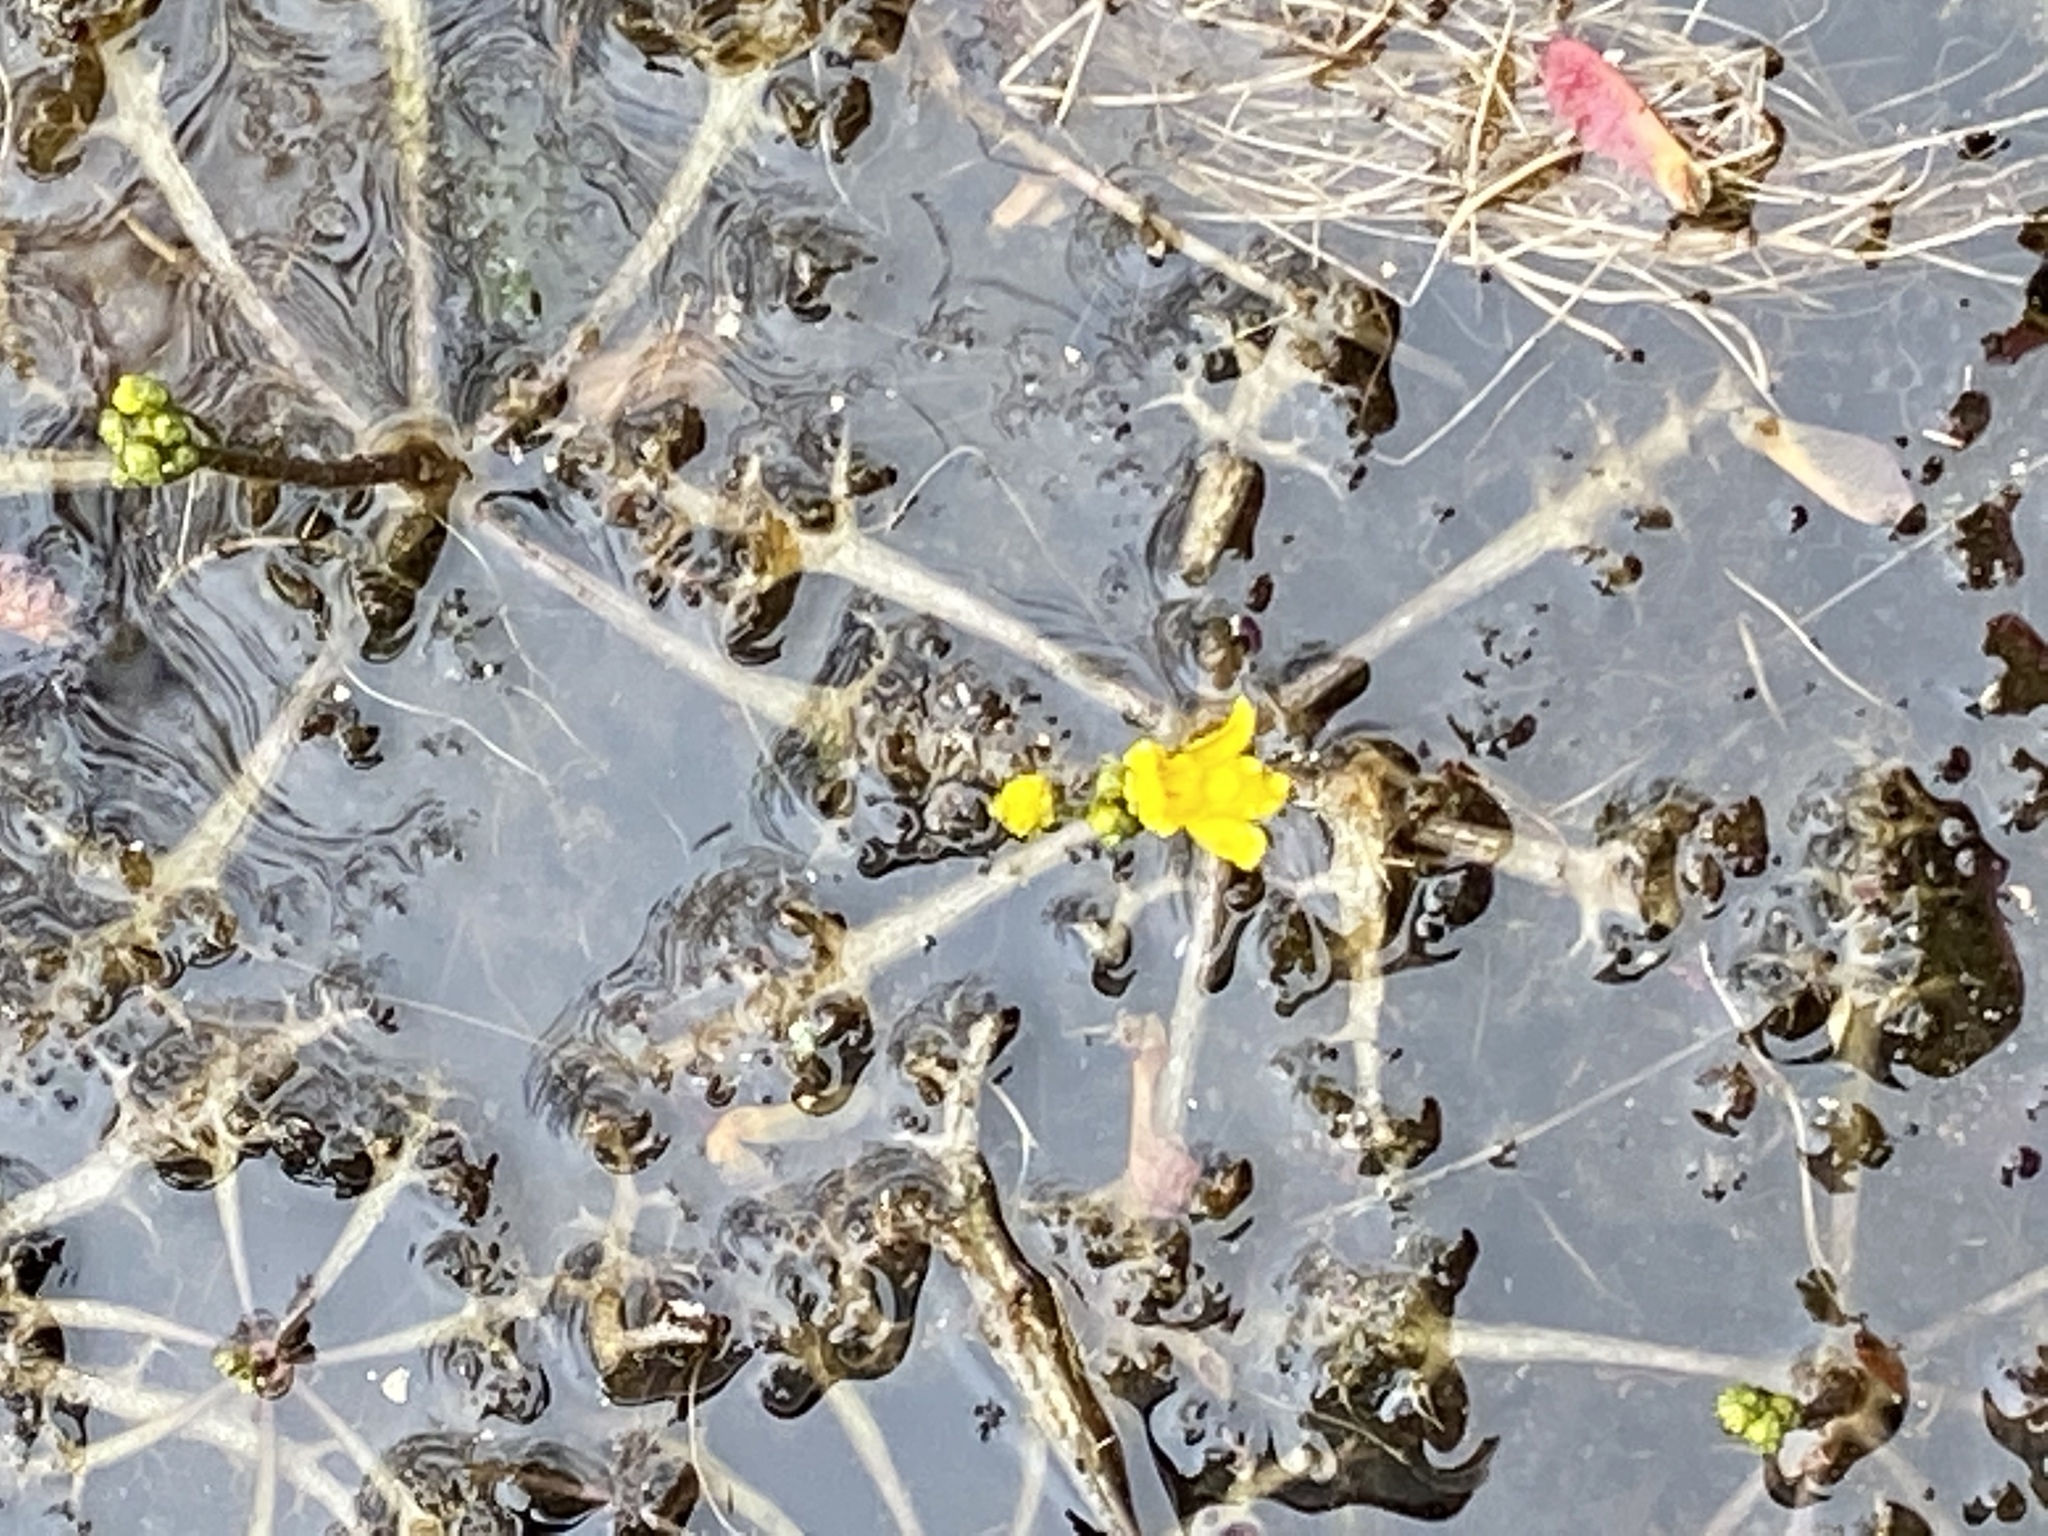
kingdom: Plantae
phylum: Tracheophyta
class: Magnoliopsida
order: Lamiales
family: Lentibulariaceae
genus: Utricularia
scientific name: Utricularia inflata
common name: Floating bladderwort
